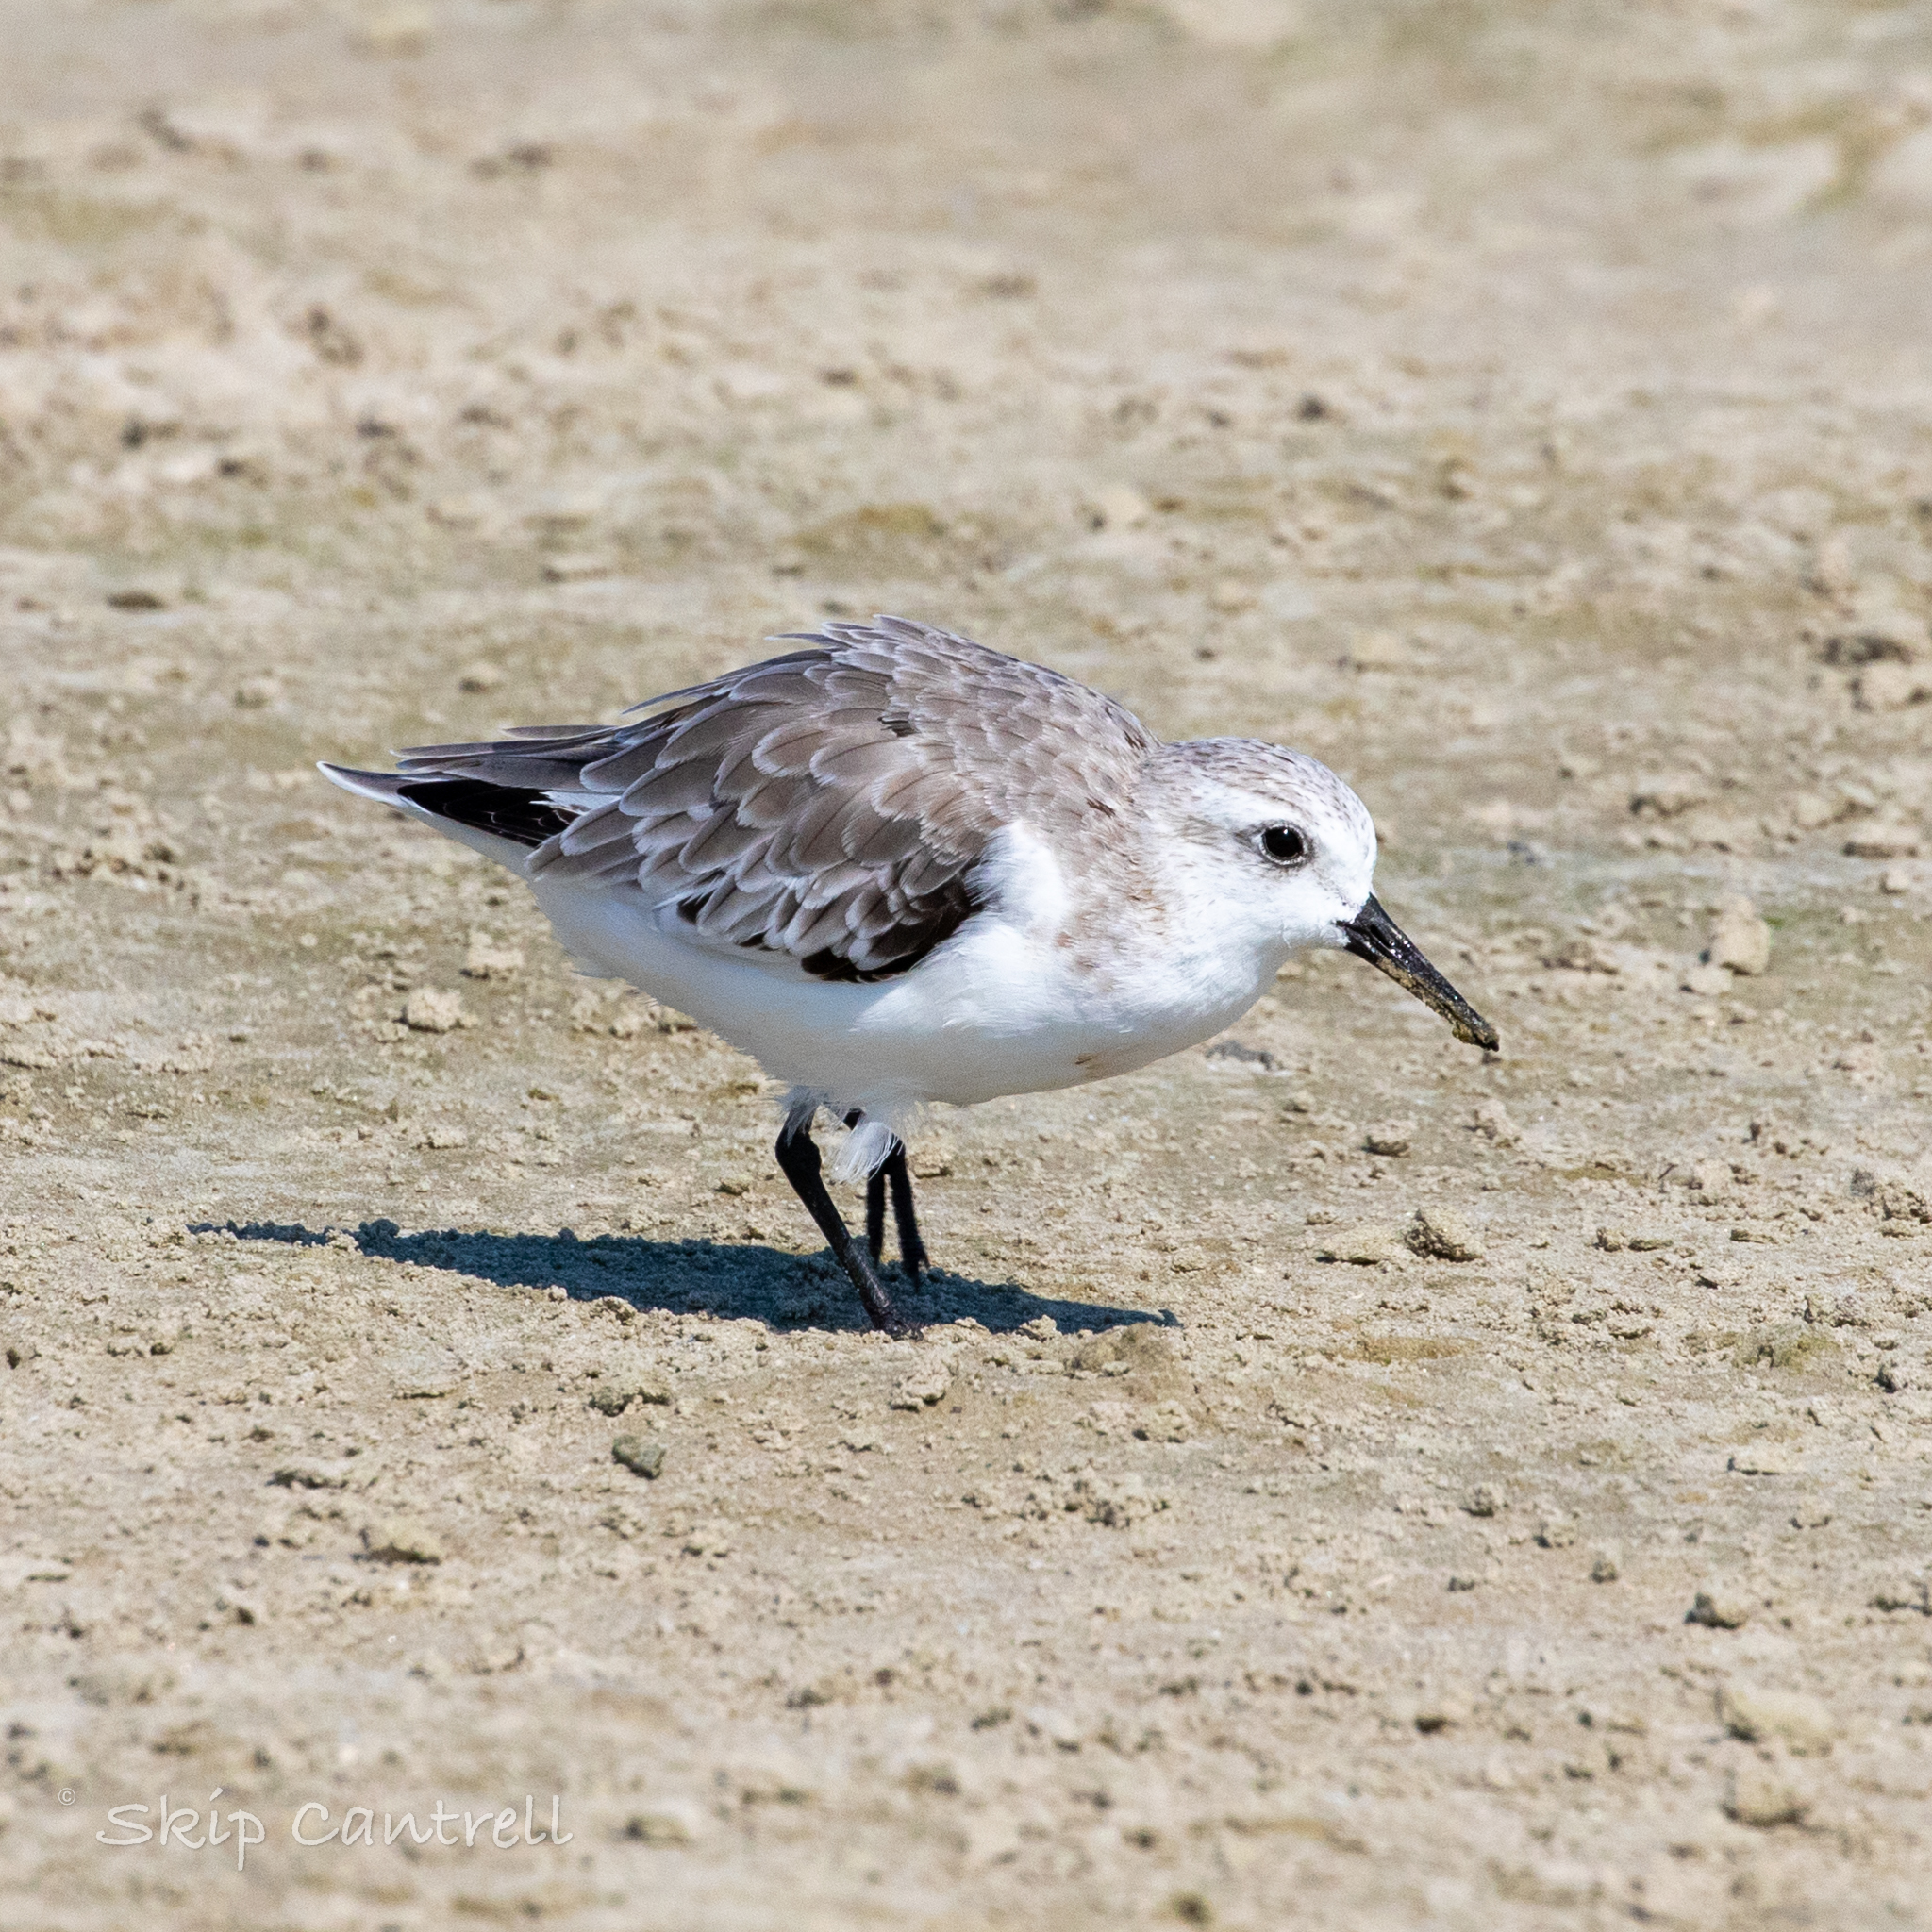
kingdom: Animalia
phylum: Chordata
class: Aves
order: Charadriiformes
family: Scolopacidae
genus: Calidris
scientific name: Calidris alba
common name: Sanderling
